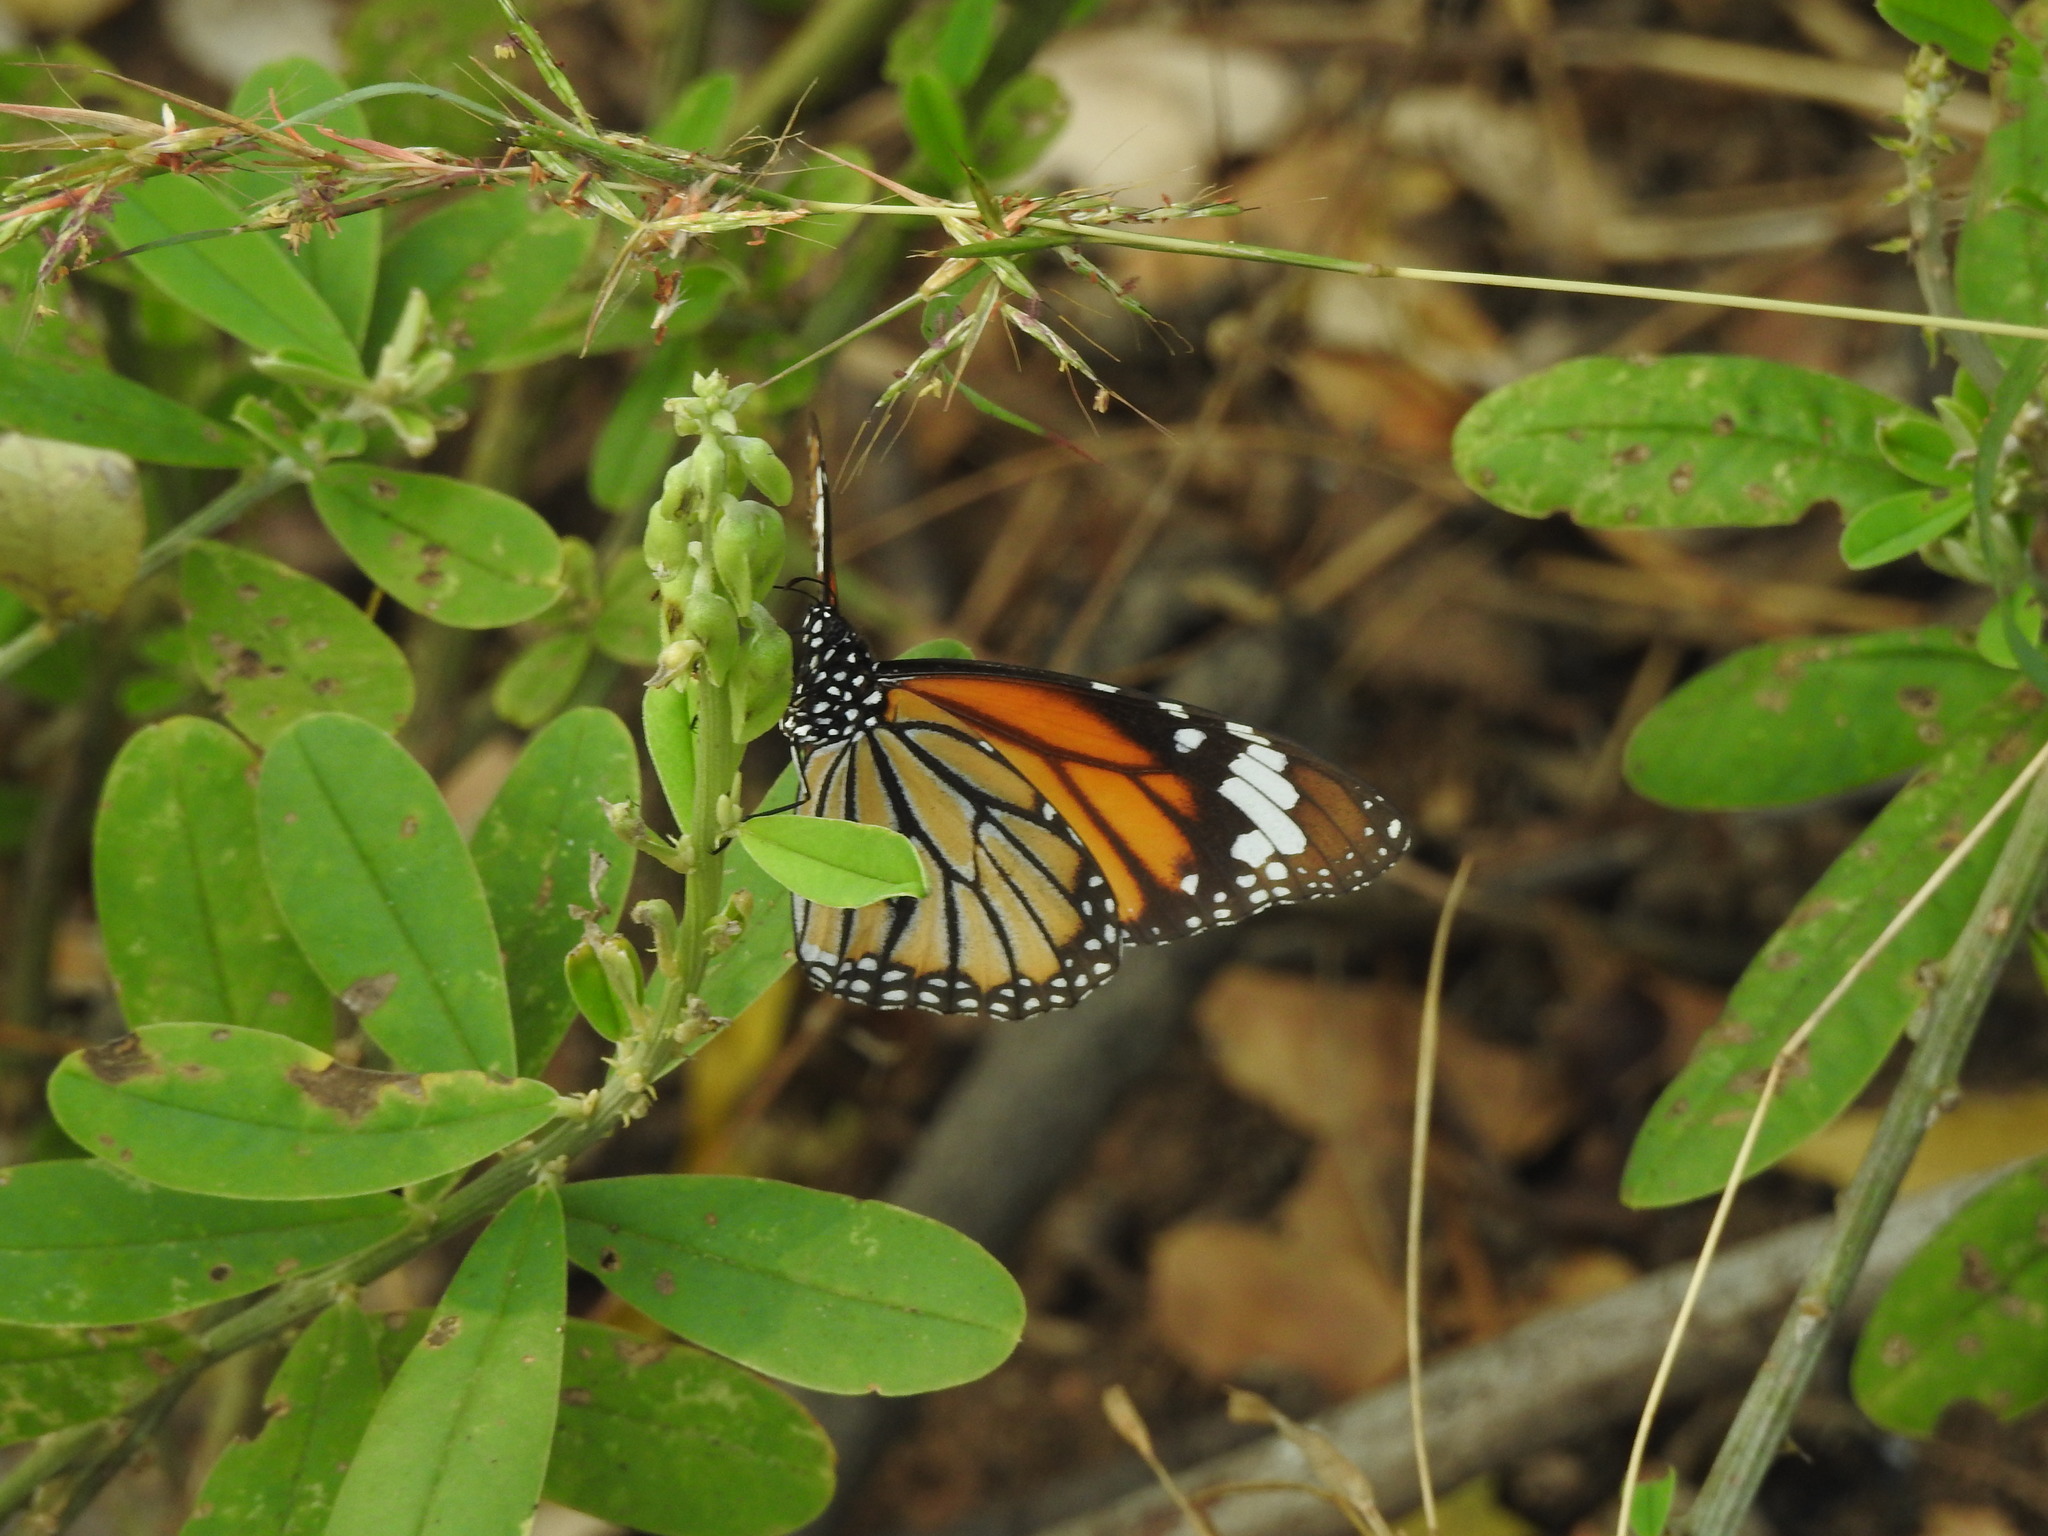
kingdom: Animalia
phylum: Arthropoda
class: Insecta
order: Lepidoptera
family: Nymphalidae
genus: Danaus
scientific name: Danaus genutia
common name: Common tiger butterfly
